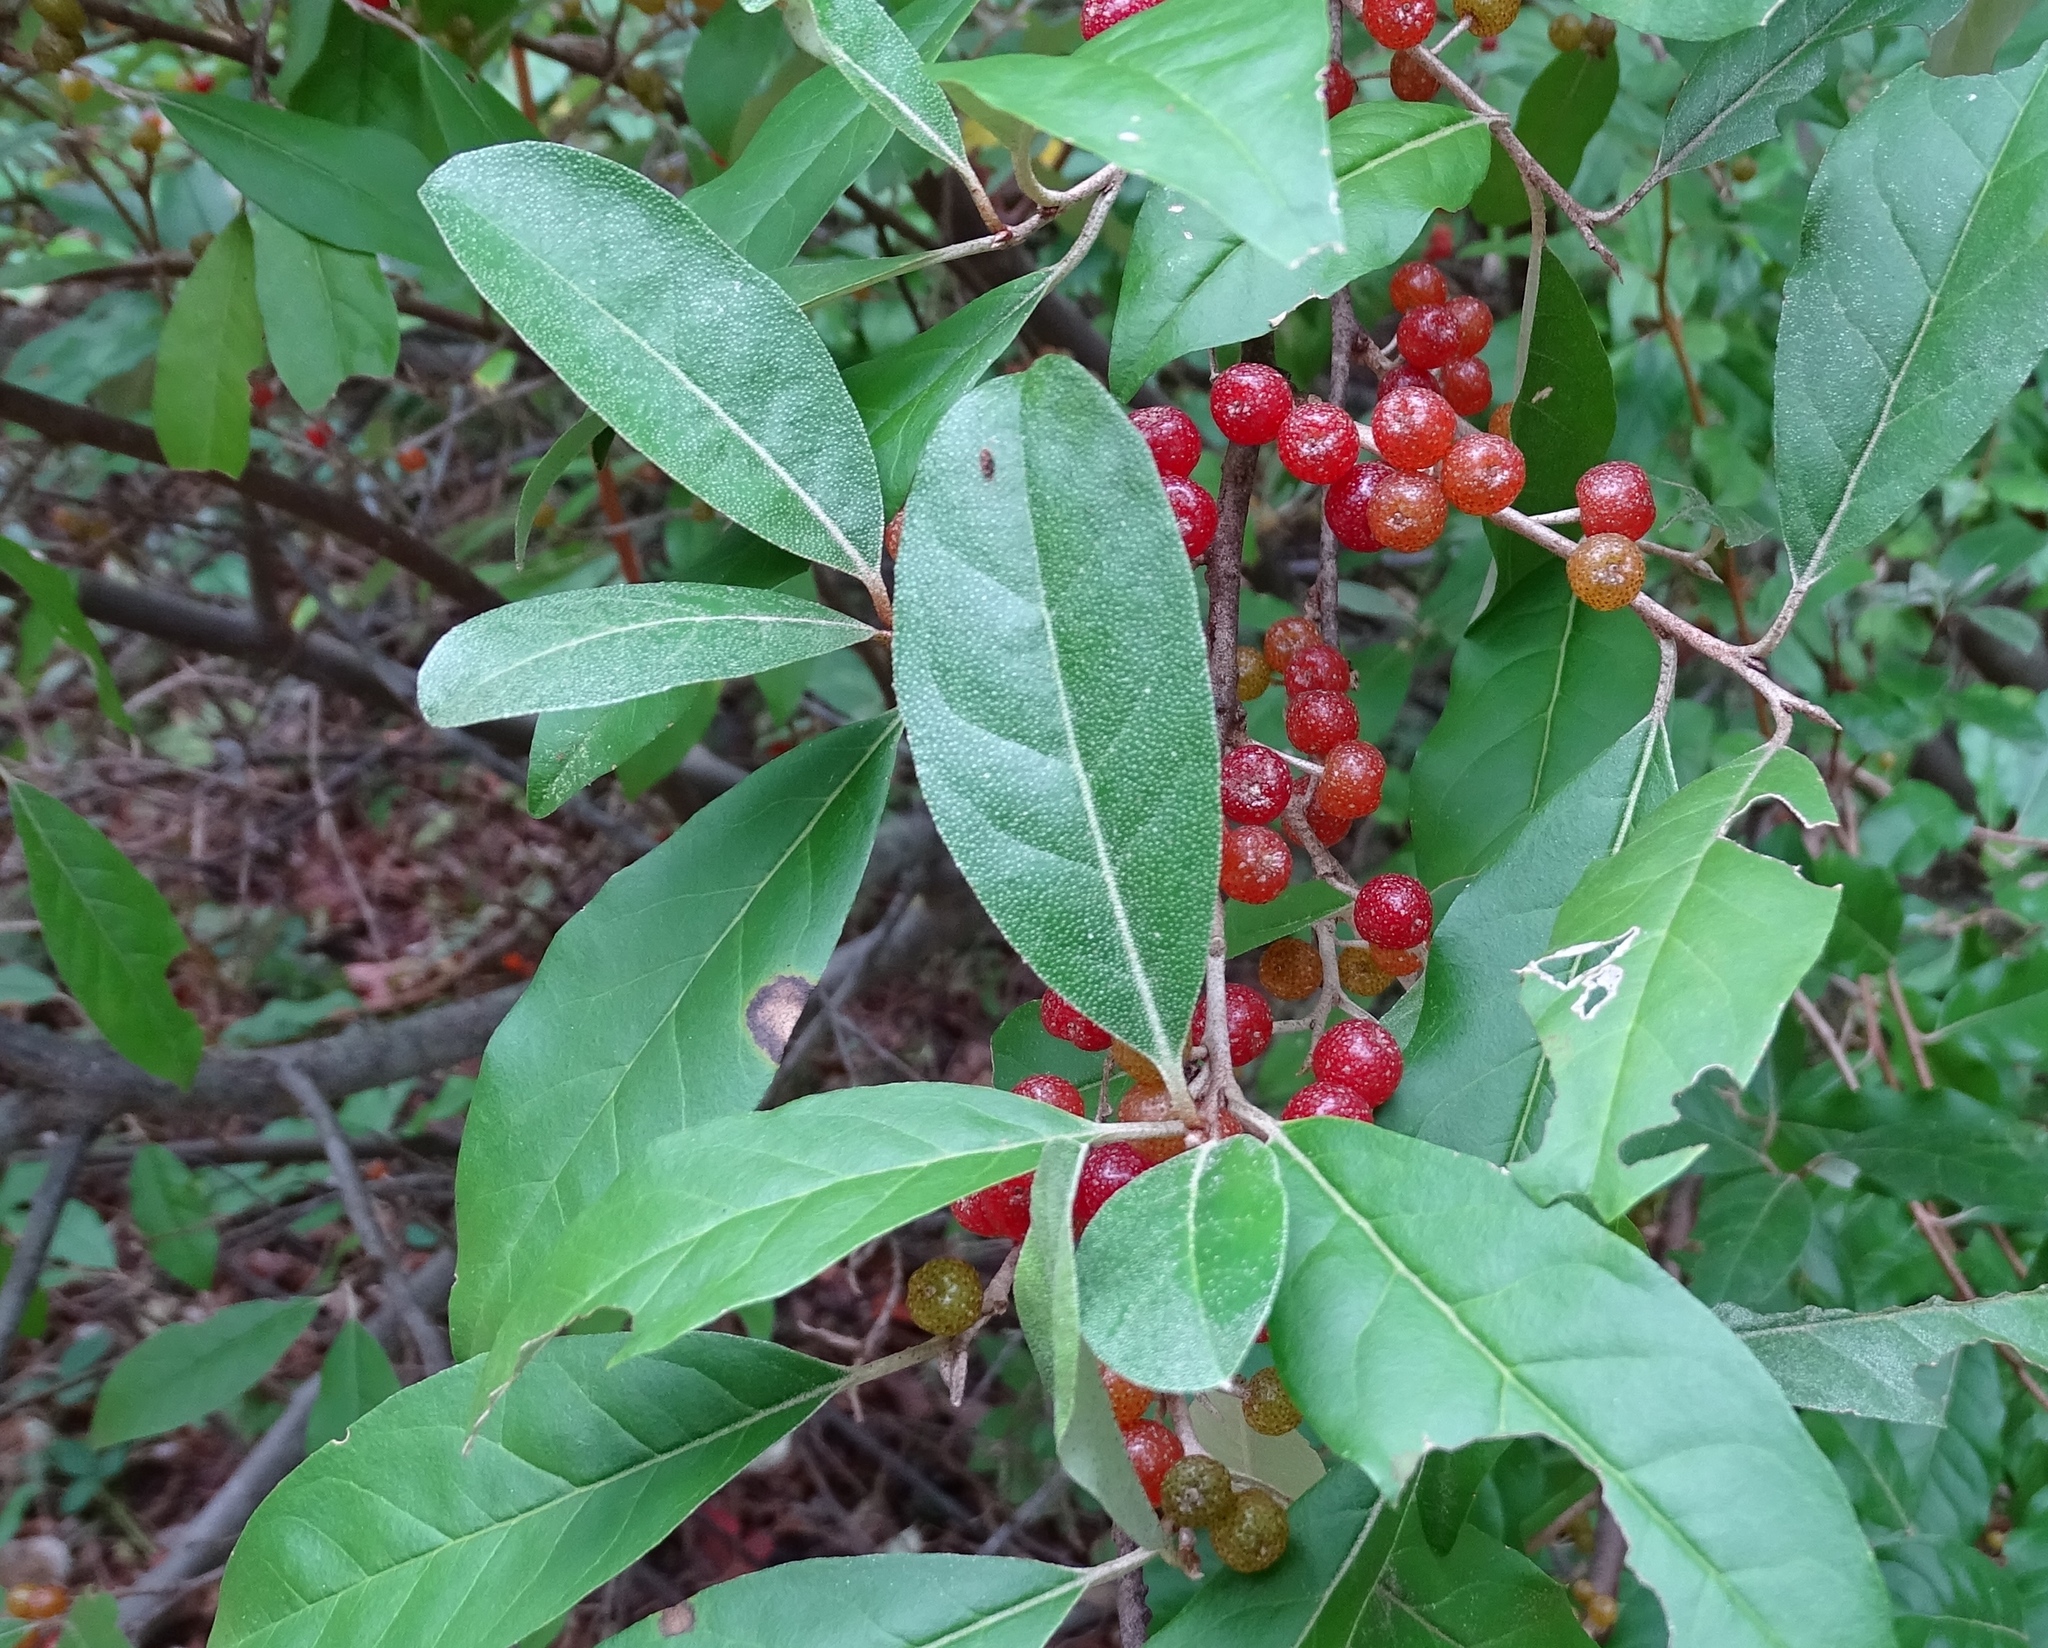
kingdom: Plantae
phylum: Tracheophyta
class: Magnoliopsida
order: Rosales
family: Elaeagnaceae
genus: Elaeagnus
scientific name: Elaeagnus umbellata
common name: Autumn olive
